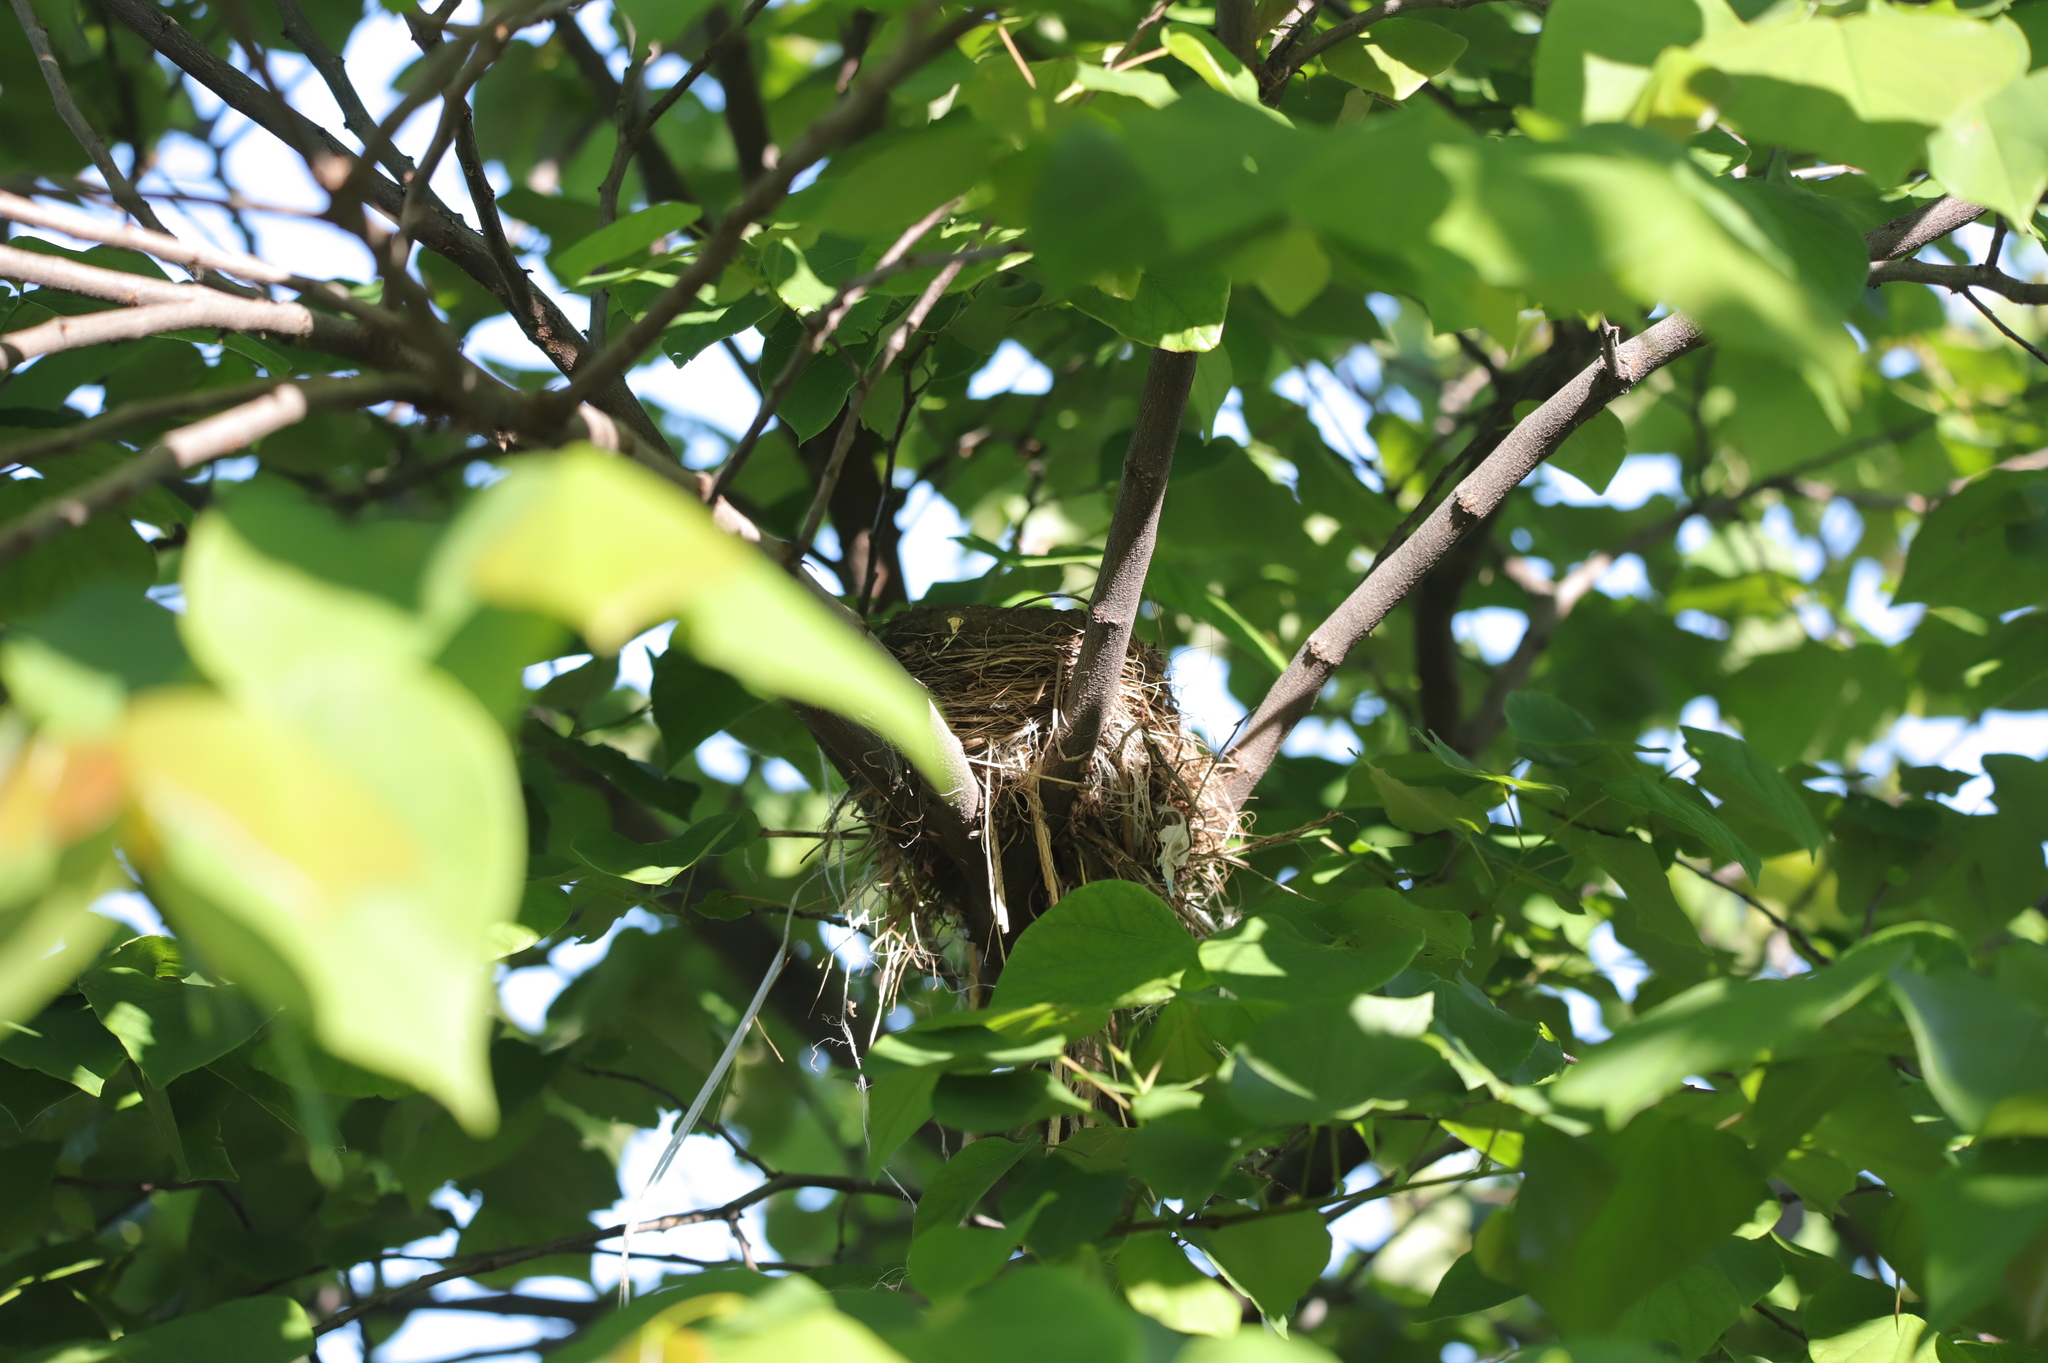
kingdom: Animalia
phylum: Chordata
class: Aves
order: Passeriformes
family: Turdidae
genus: Turdus
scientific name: Turdus migratorius
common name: American robin
